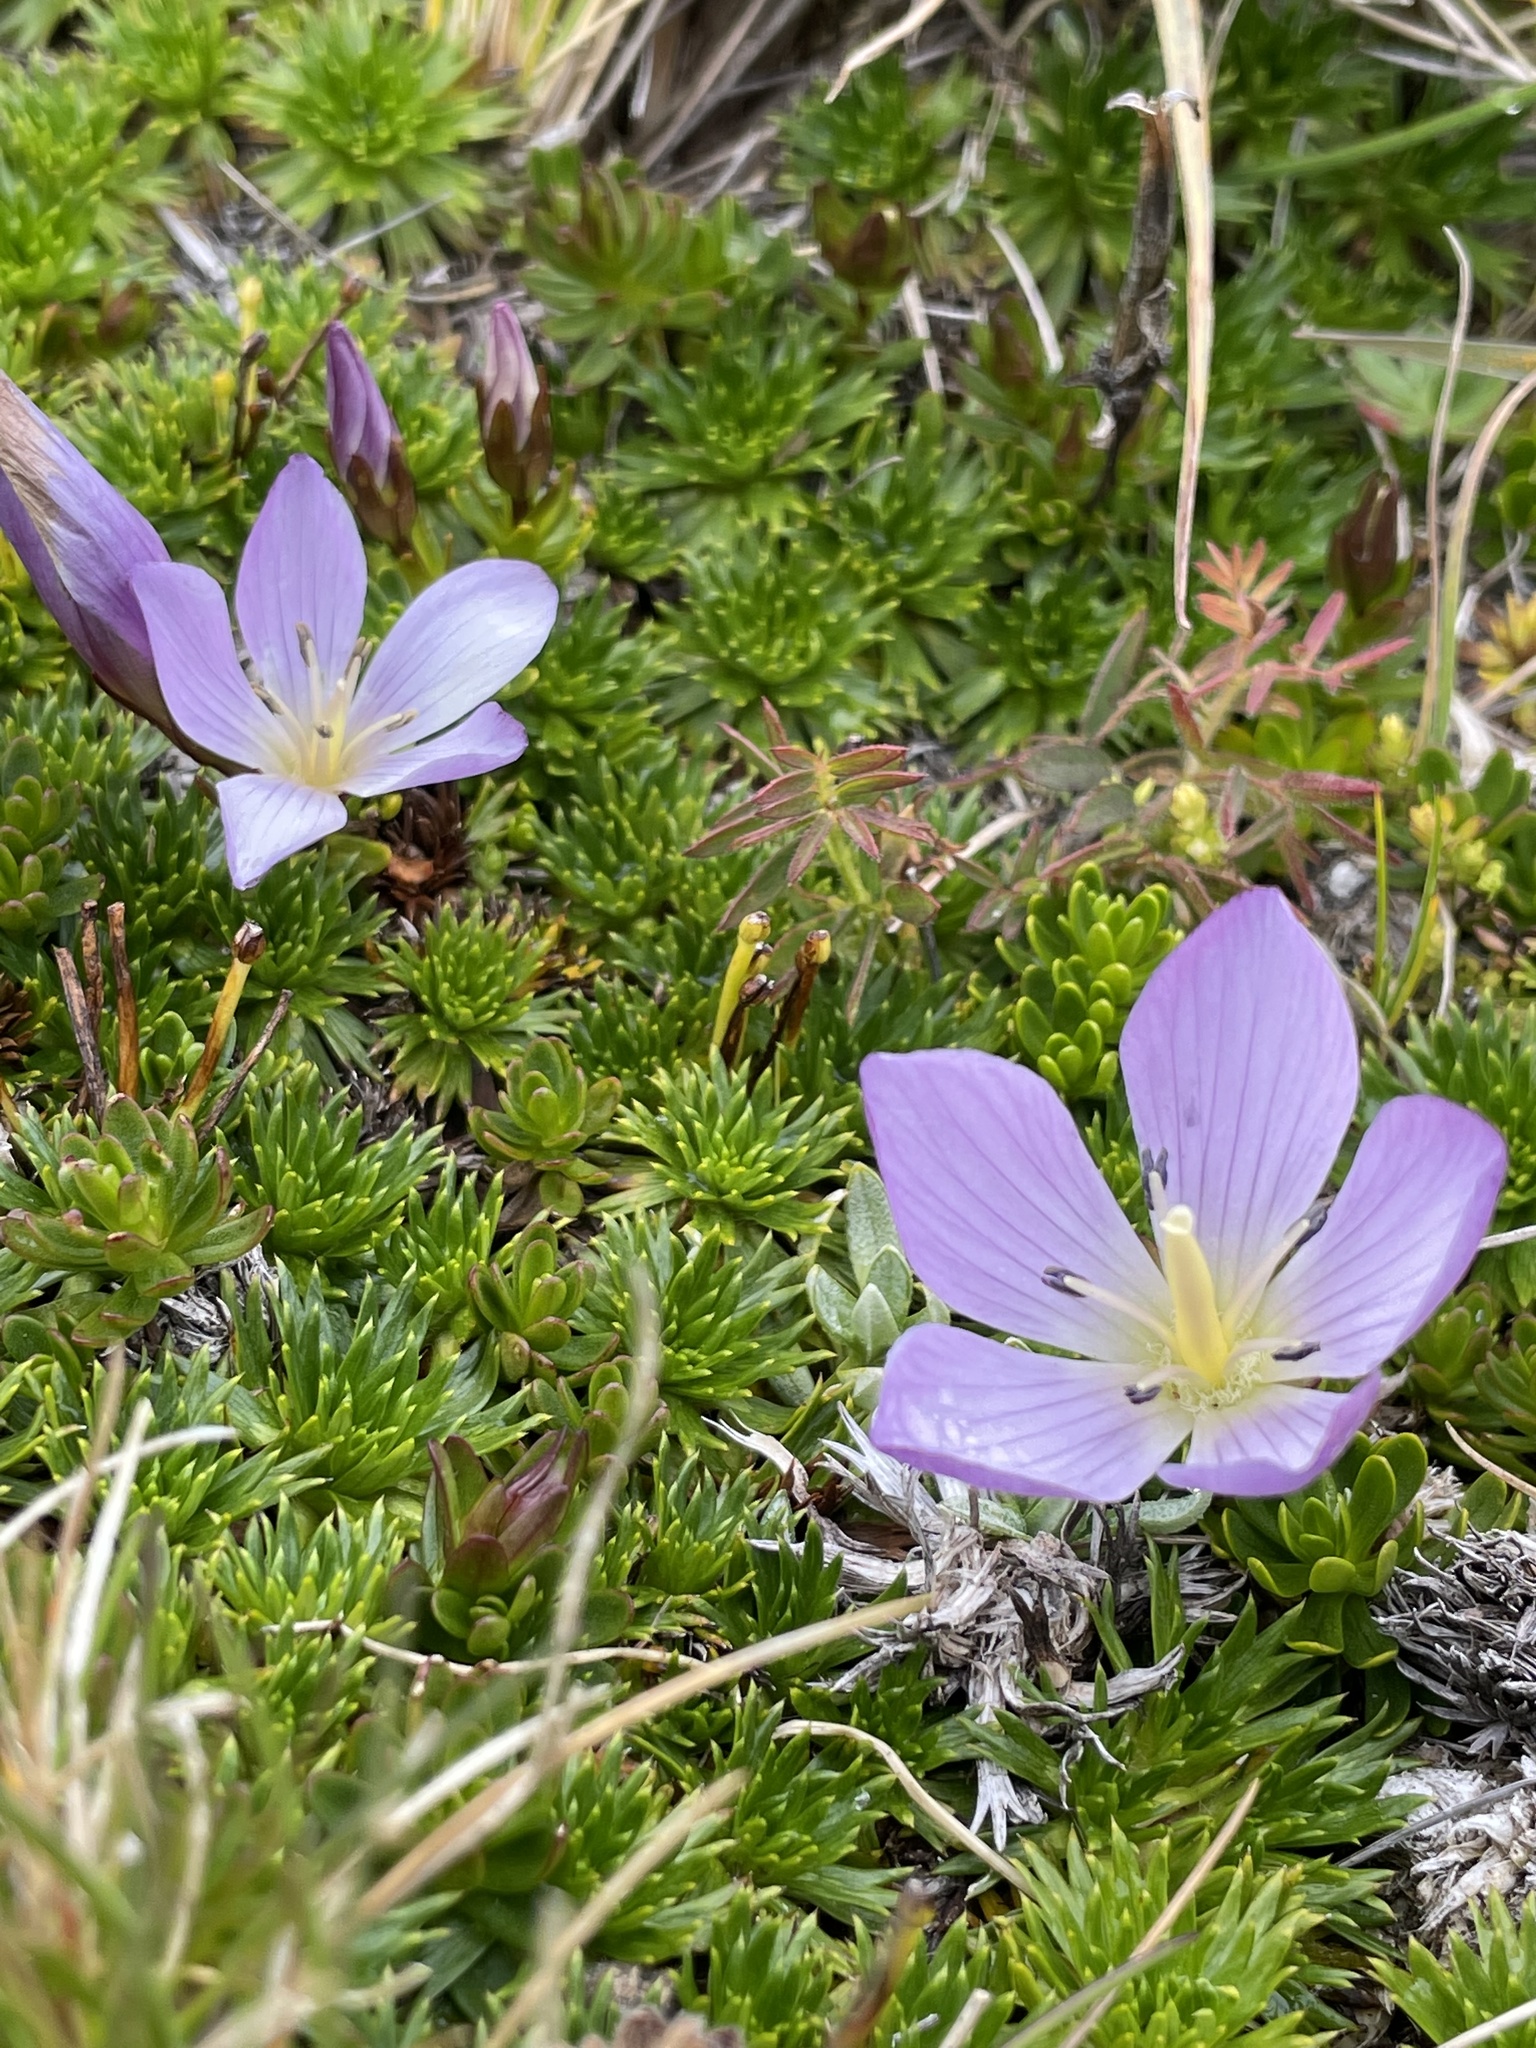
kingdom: Plantae
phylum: Tracheophyta
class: Magnoliopsida
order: Gentianales
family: Gentianaceae
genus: Gentianella
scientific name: Gentianella cerastioides
